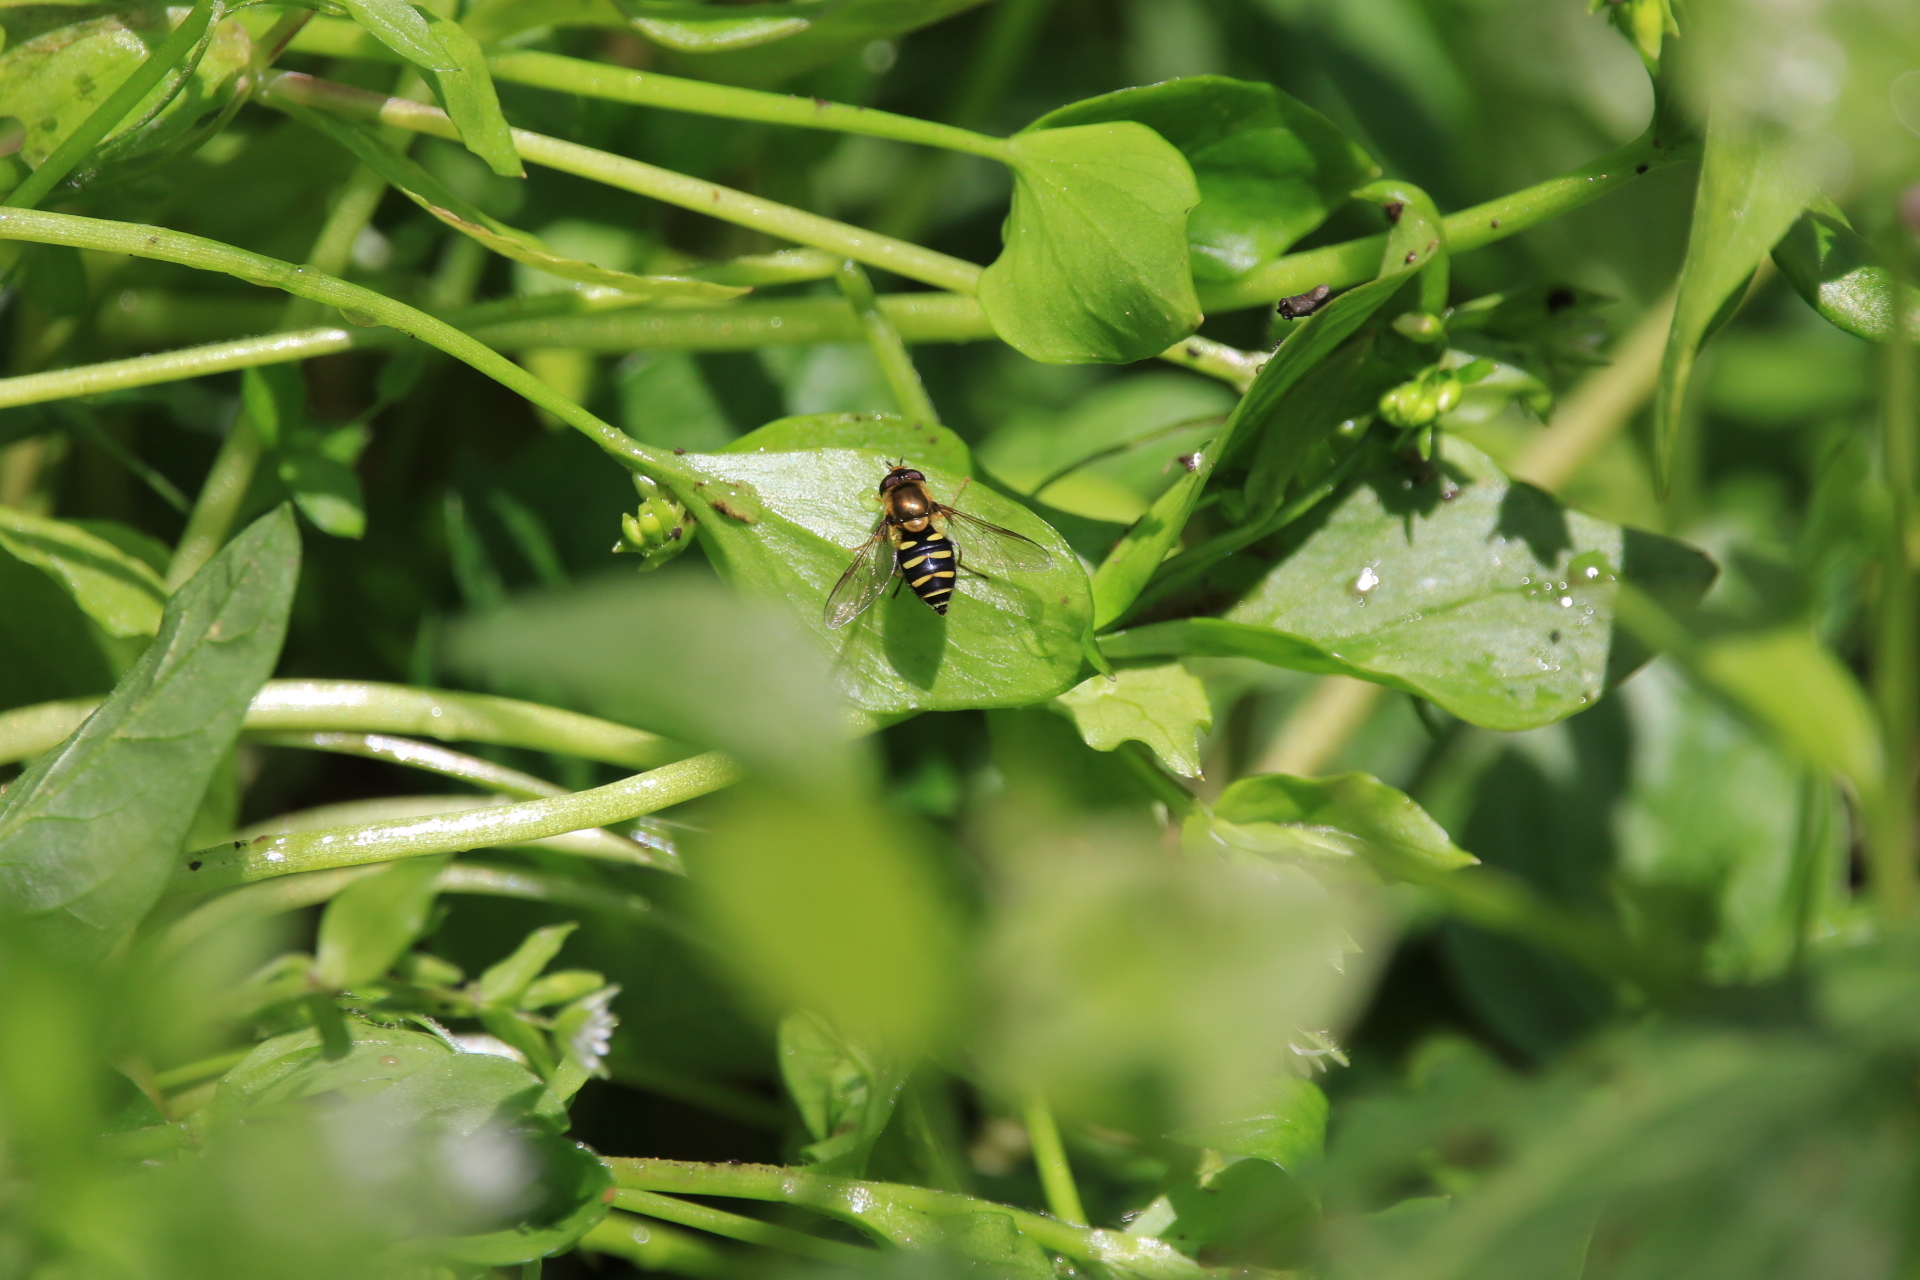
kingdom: Animalia
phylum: Arthropoda
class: Insecta
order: Diptera
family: Syrphidae
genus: Syrphus
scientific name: Syrphus opinator
